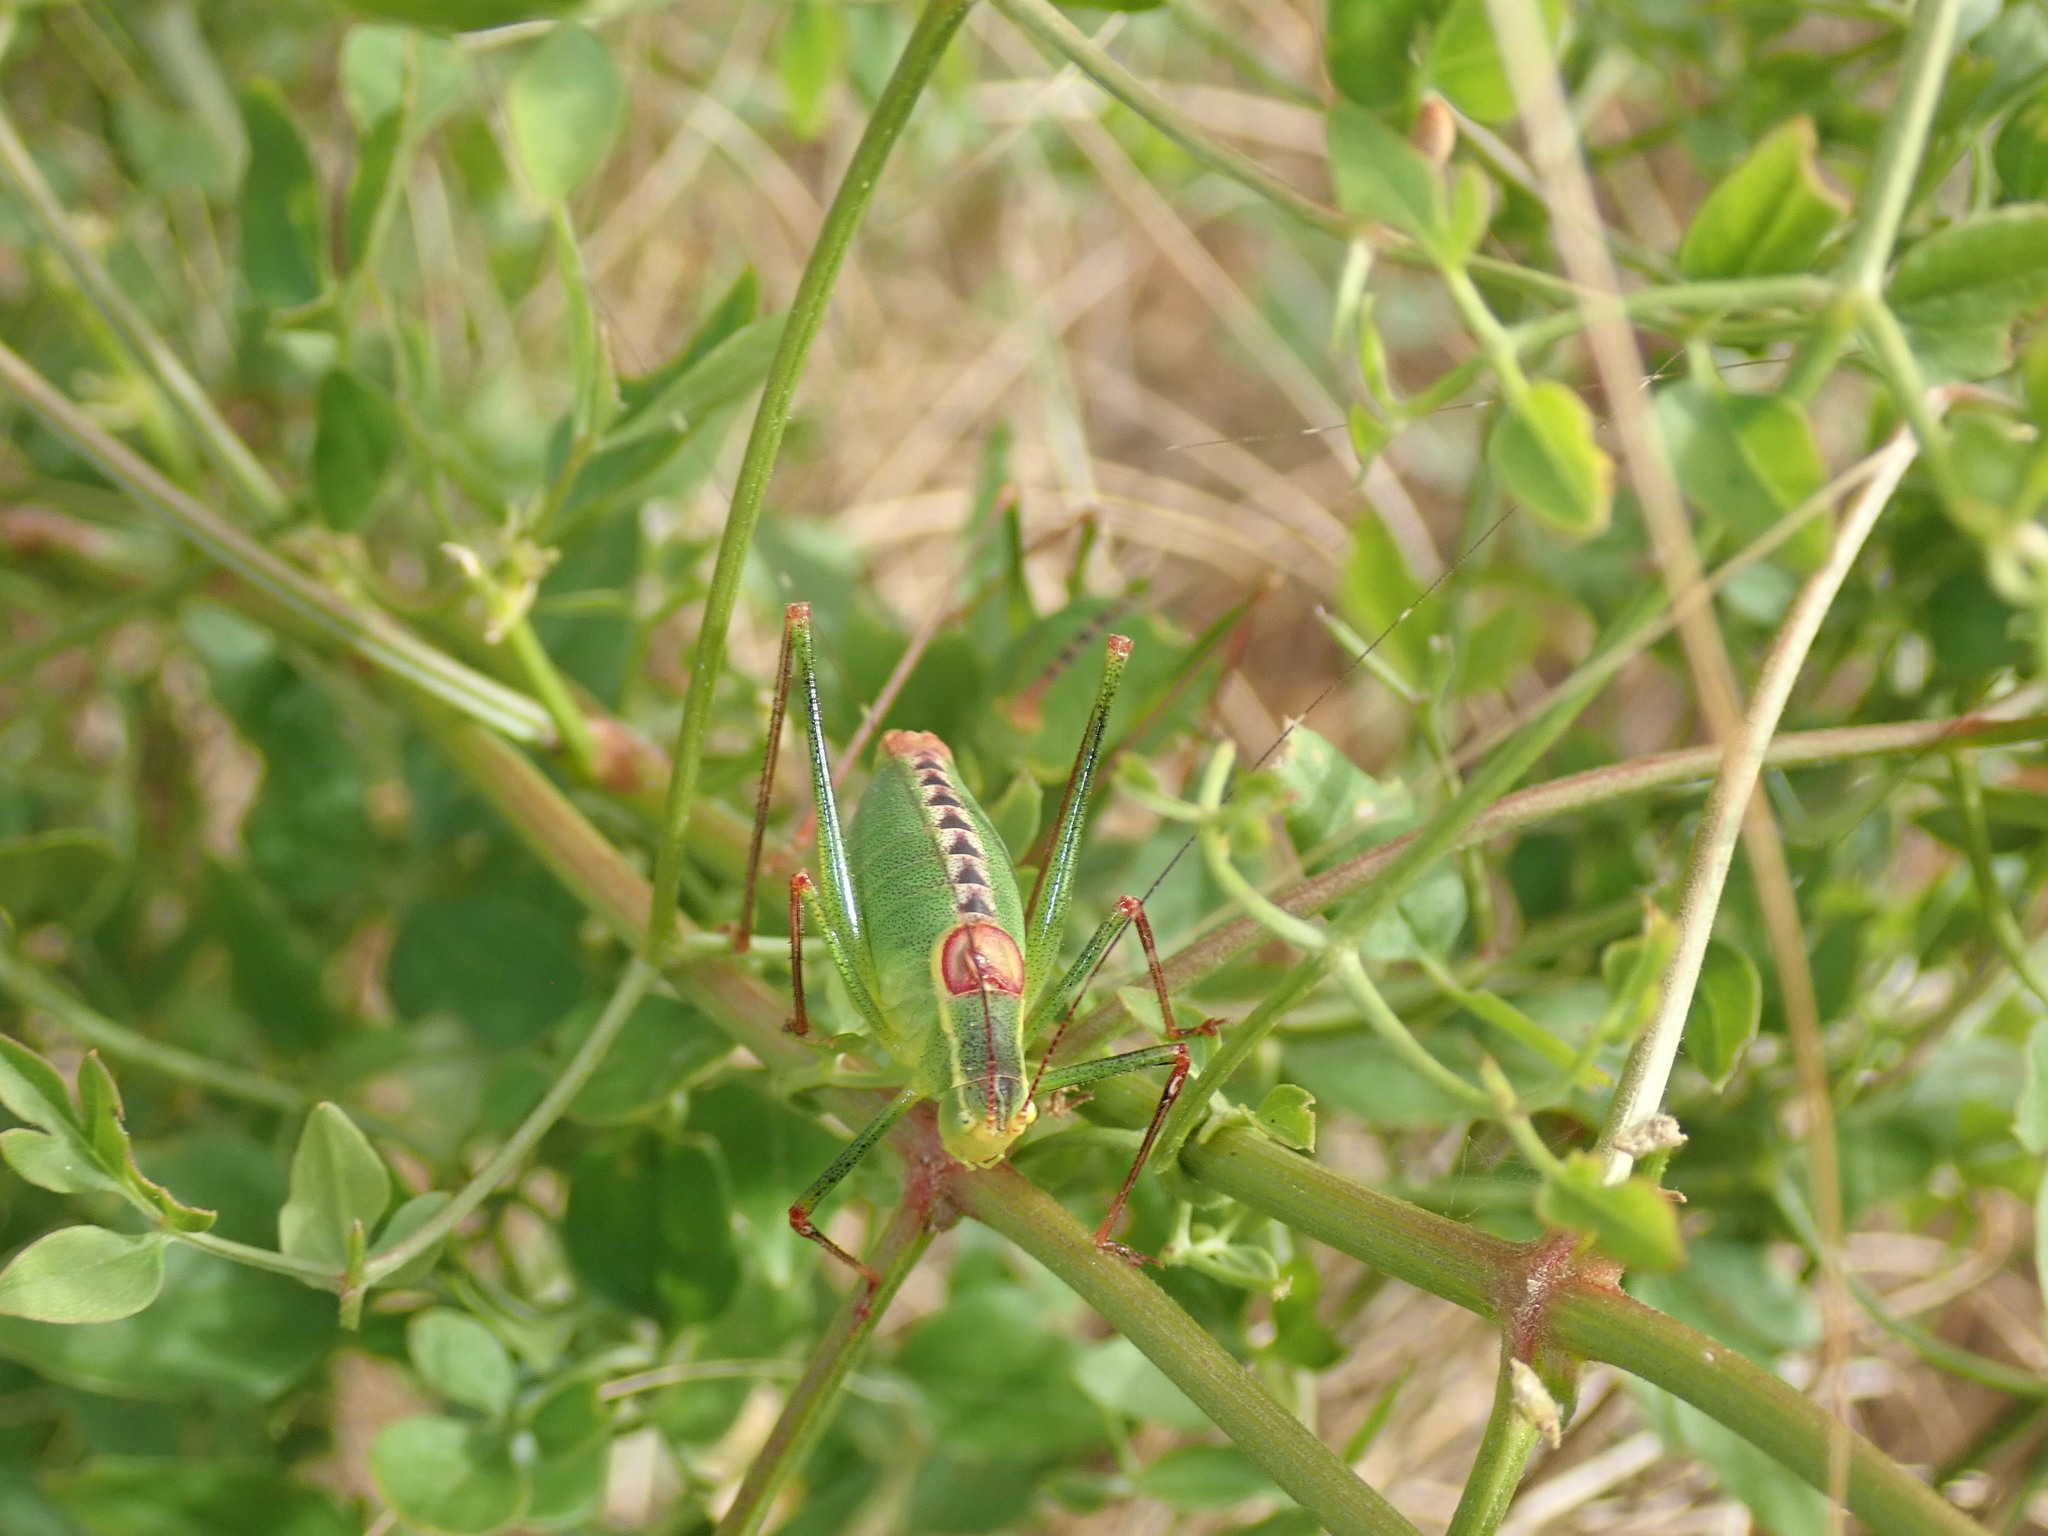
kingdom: Animalia
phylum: Arthropoda
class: Insecta
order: Orthoptera
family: Tettigoniidae
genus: Leptophyes
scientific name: Leptophyes laticauda
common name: Long-tailed speckled bush-cricket
